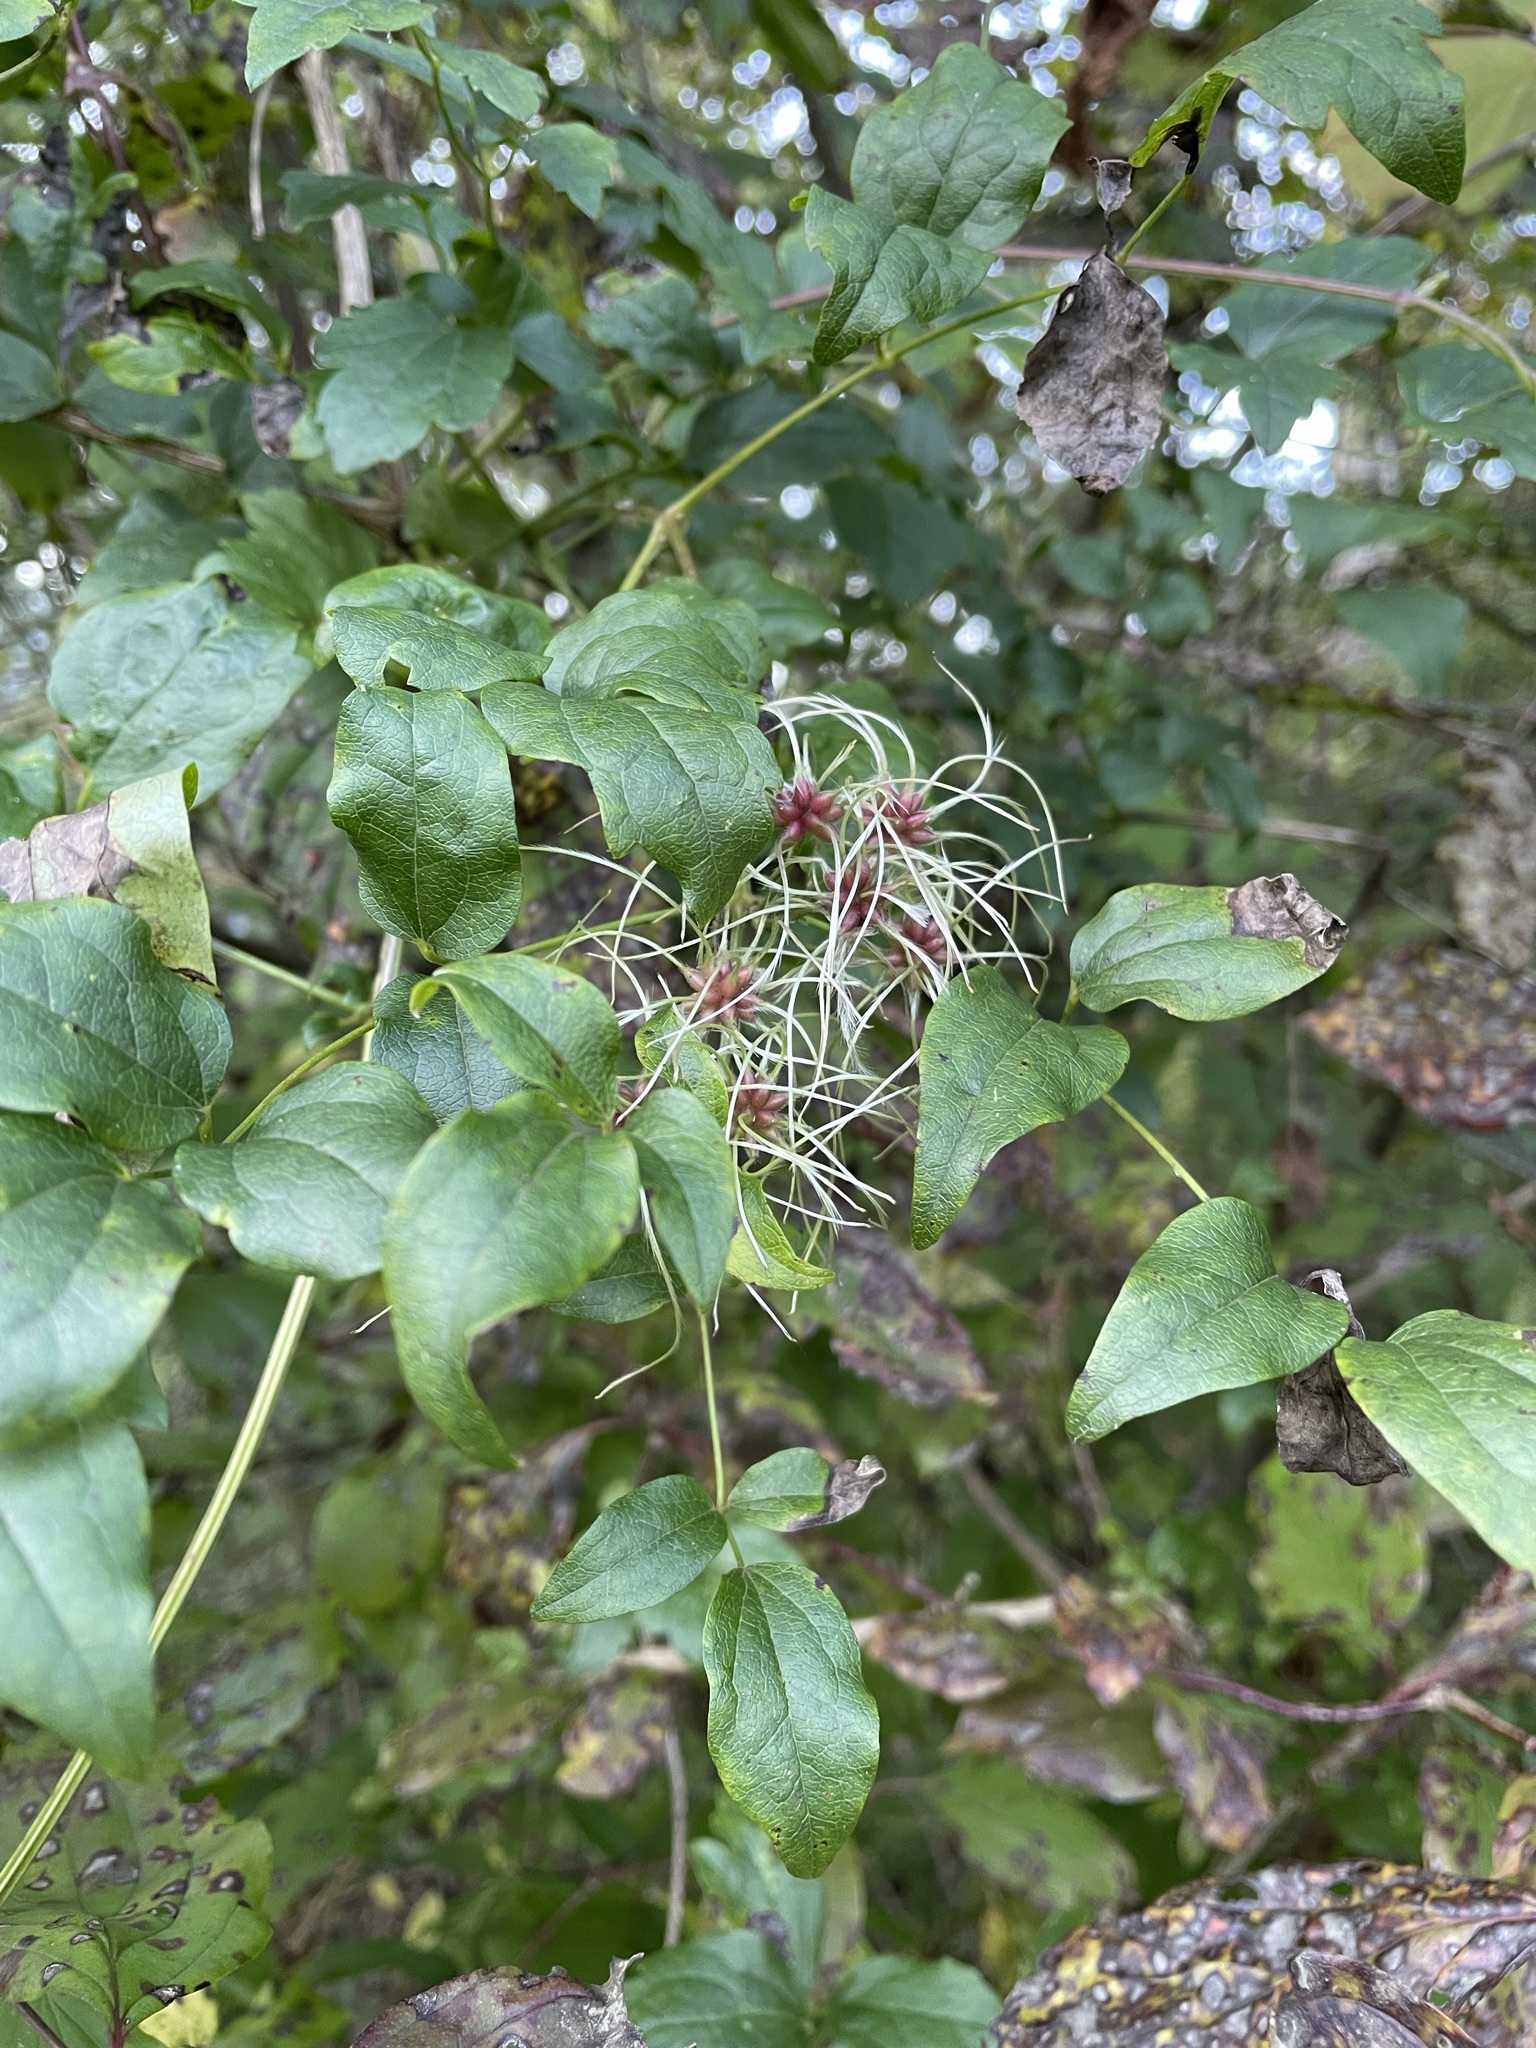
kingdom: Plantae
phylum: Tracheophyta
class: Magnoliopsida
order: Ranunculales
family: Ranunculaceae
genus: Clematis
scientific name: Clematis vitalba
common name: Evergreen clematis
